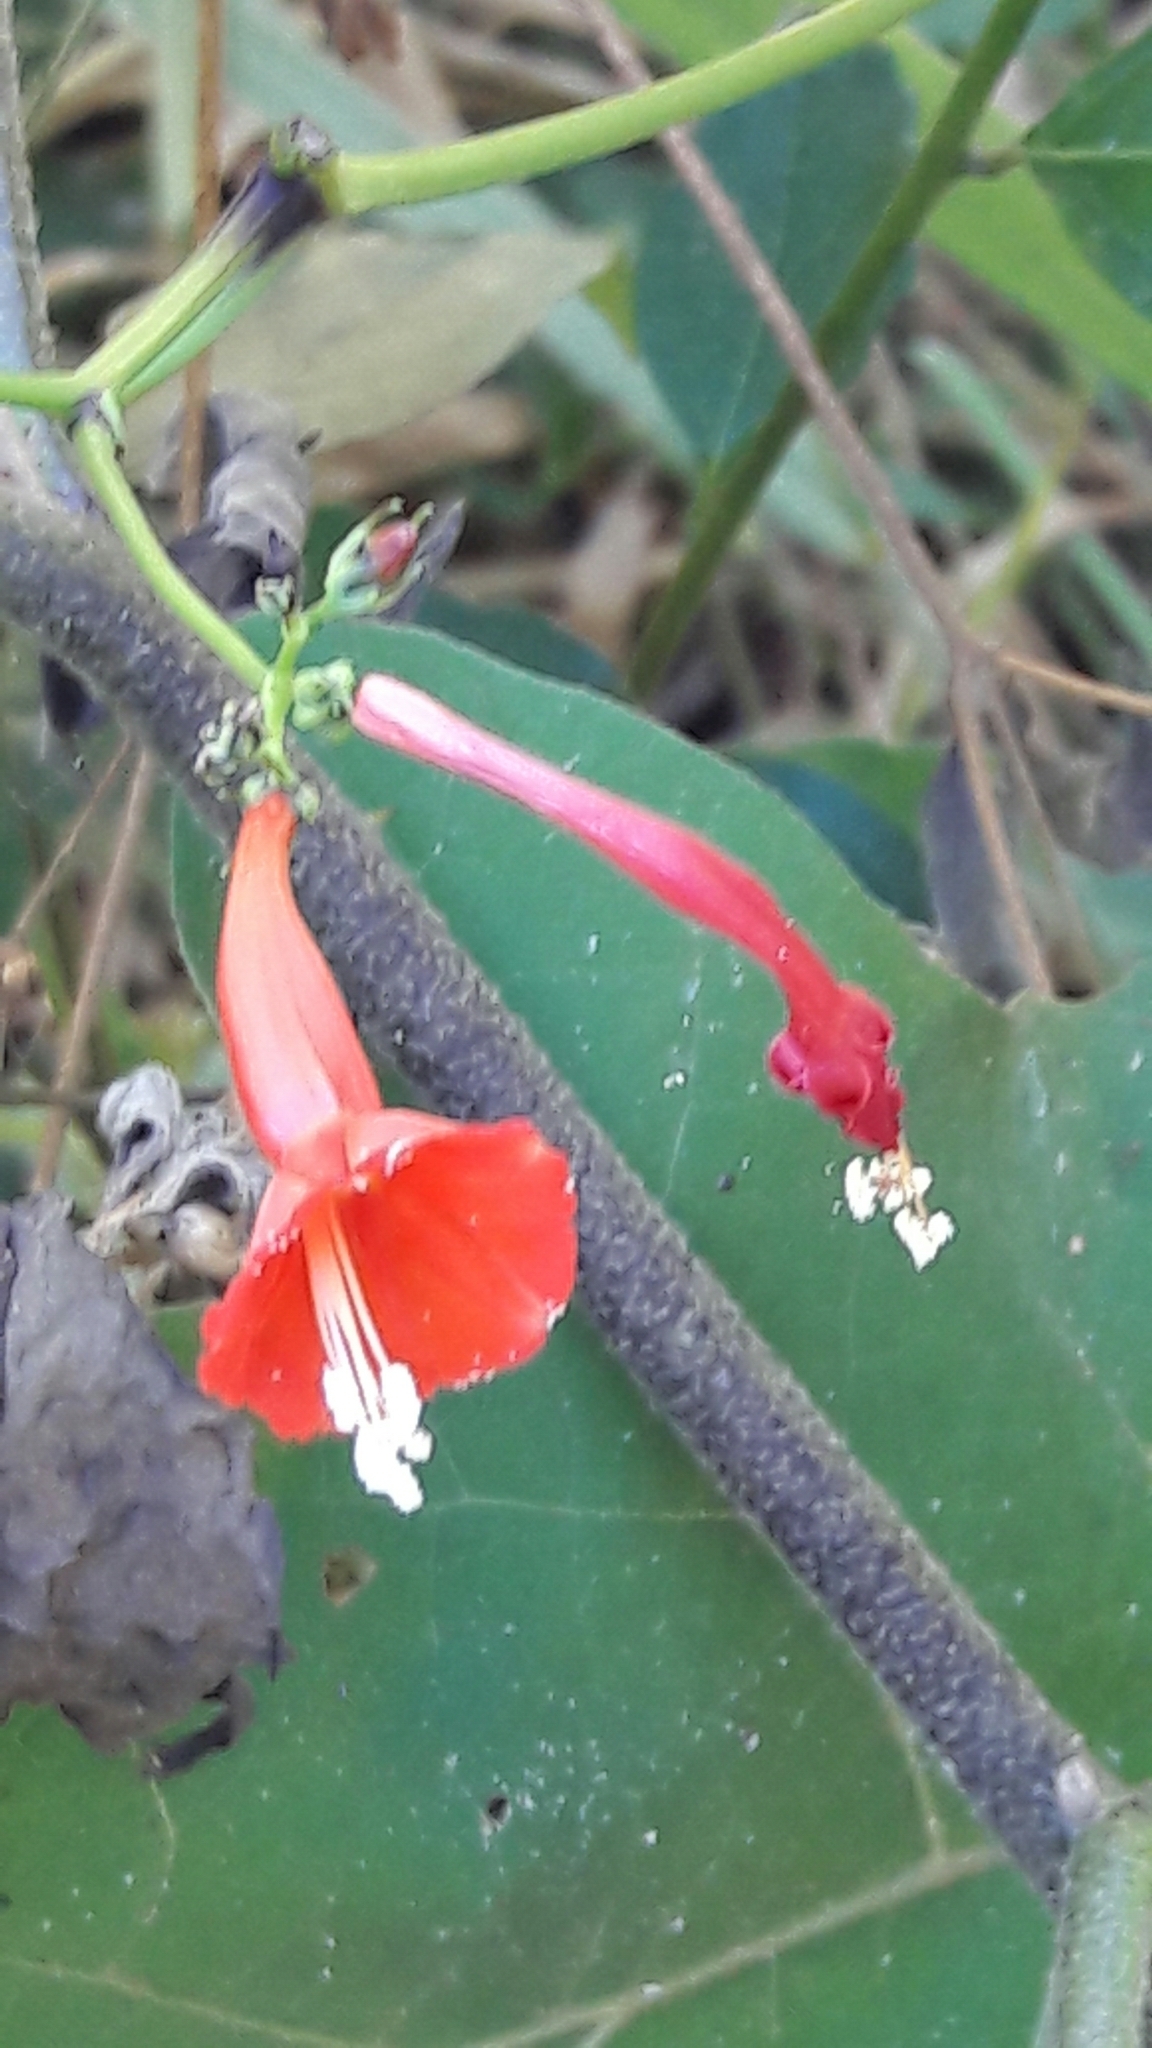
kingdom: Plantae
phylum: Tracheophyta
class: Magnoliopsida
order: Solanales
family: Convolvulaceae
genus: Ipomoea
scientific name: Ipomoea hederifolia
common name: Ivy-leaf morning-glory
